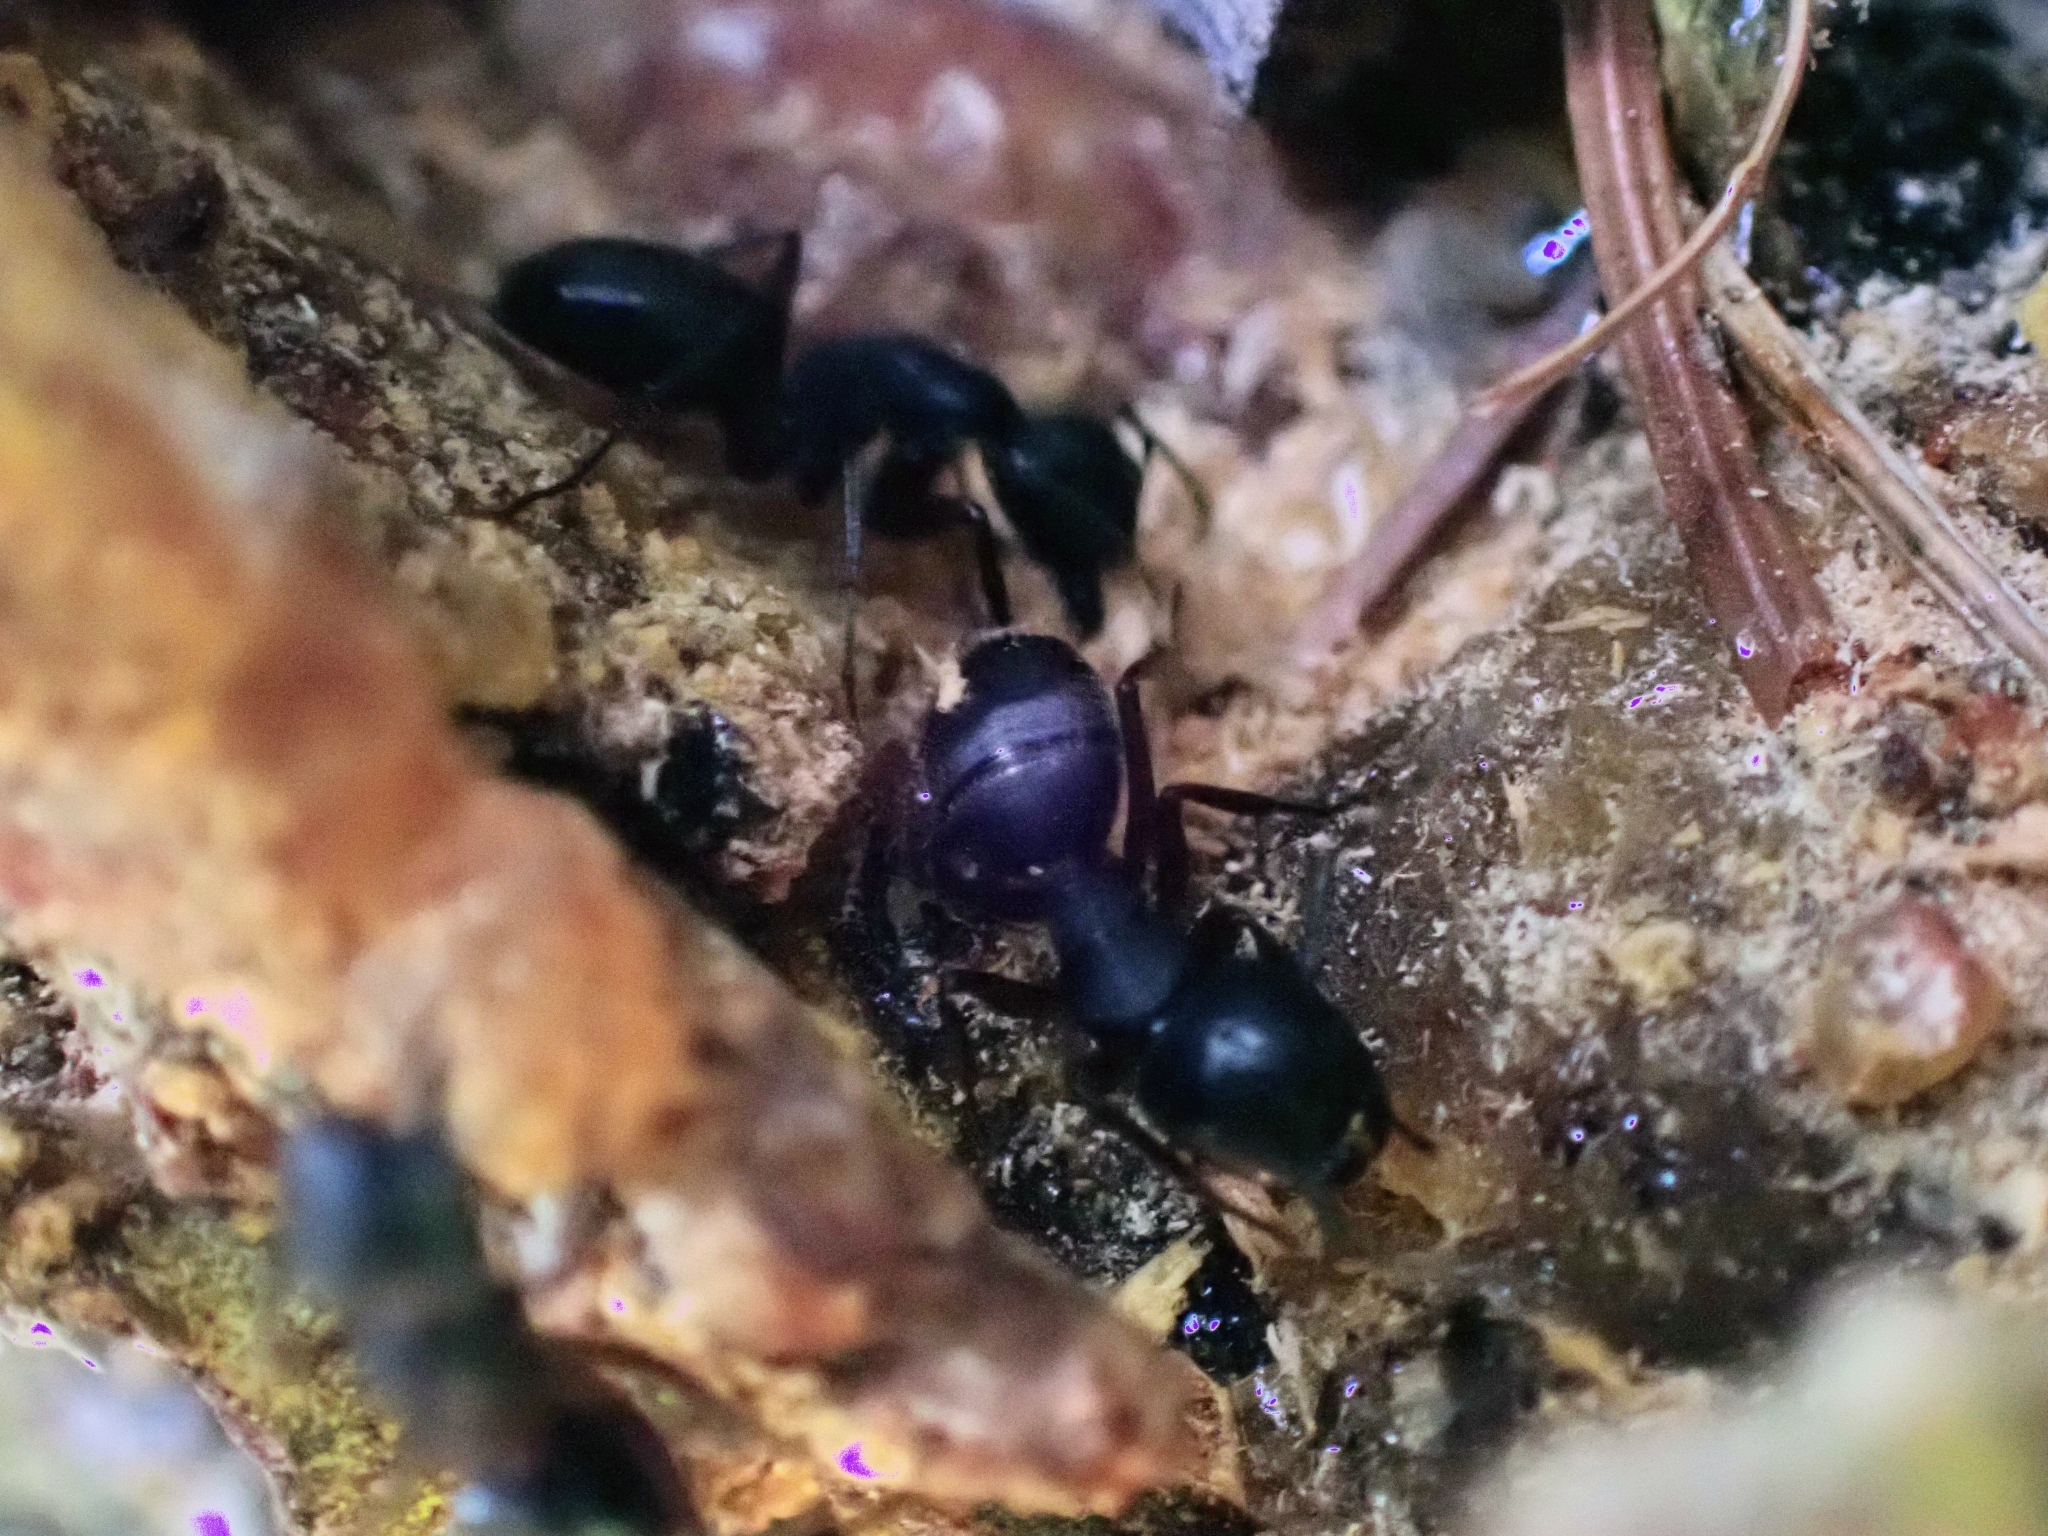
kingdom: Animalia
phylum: Arthropoda
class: Insecta
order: Hymenoptera
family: Formicidae
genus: Camponotus
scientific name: Camponotus herculeanus
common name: Hercules ant
